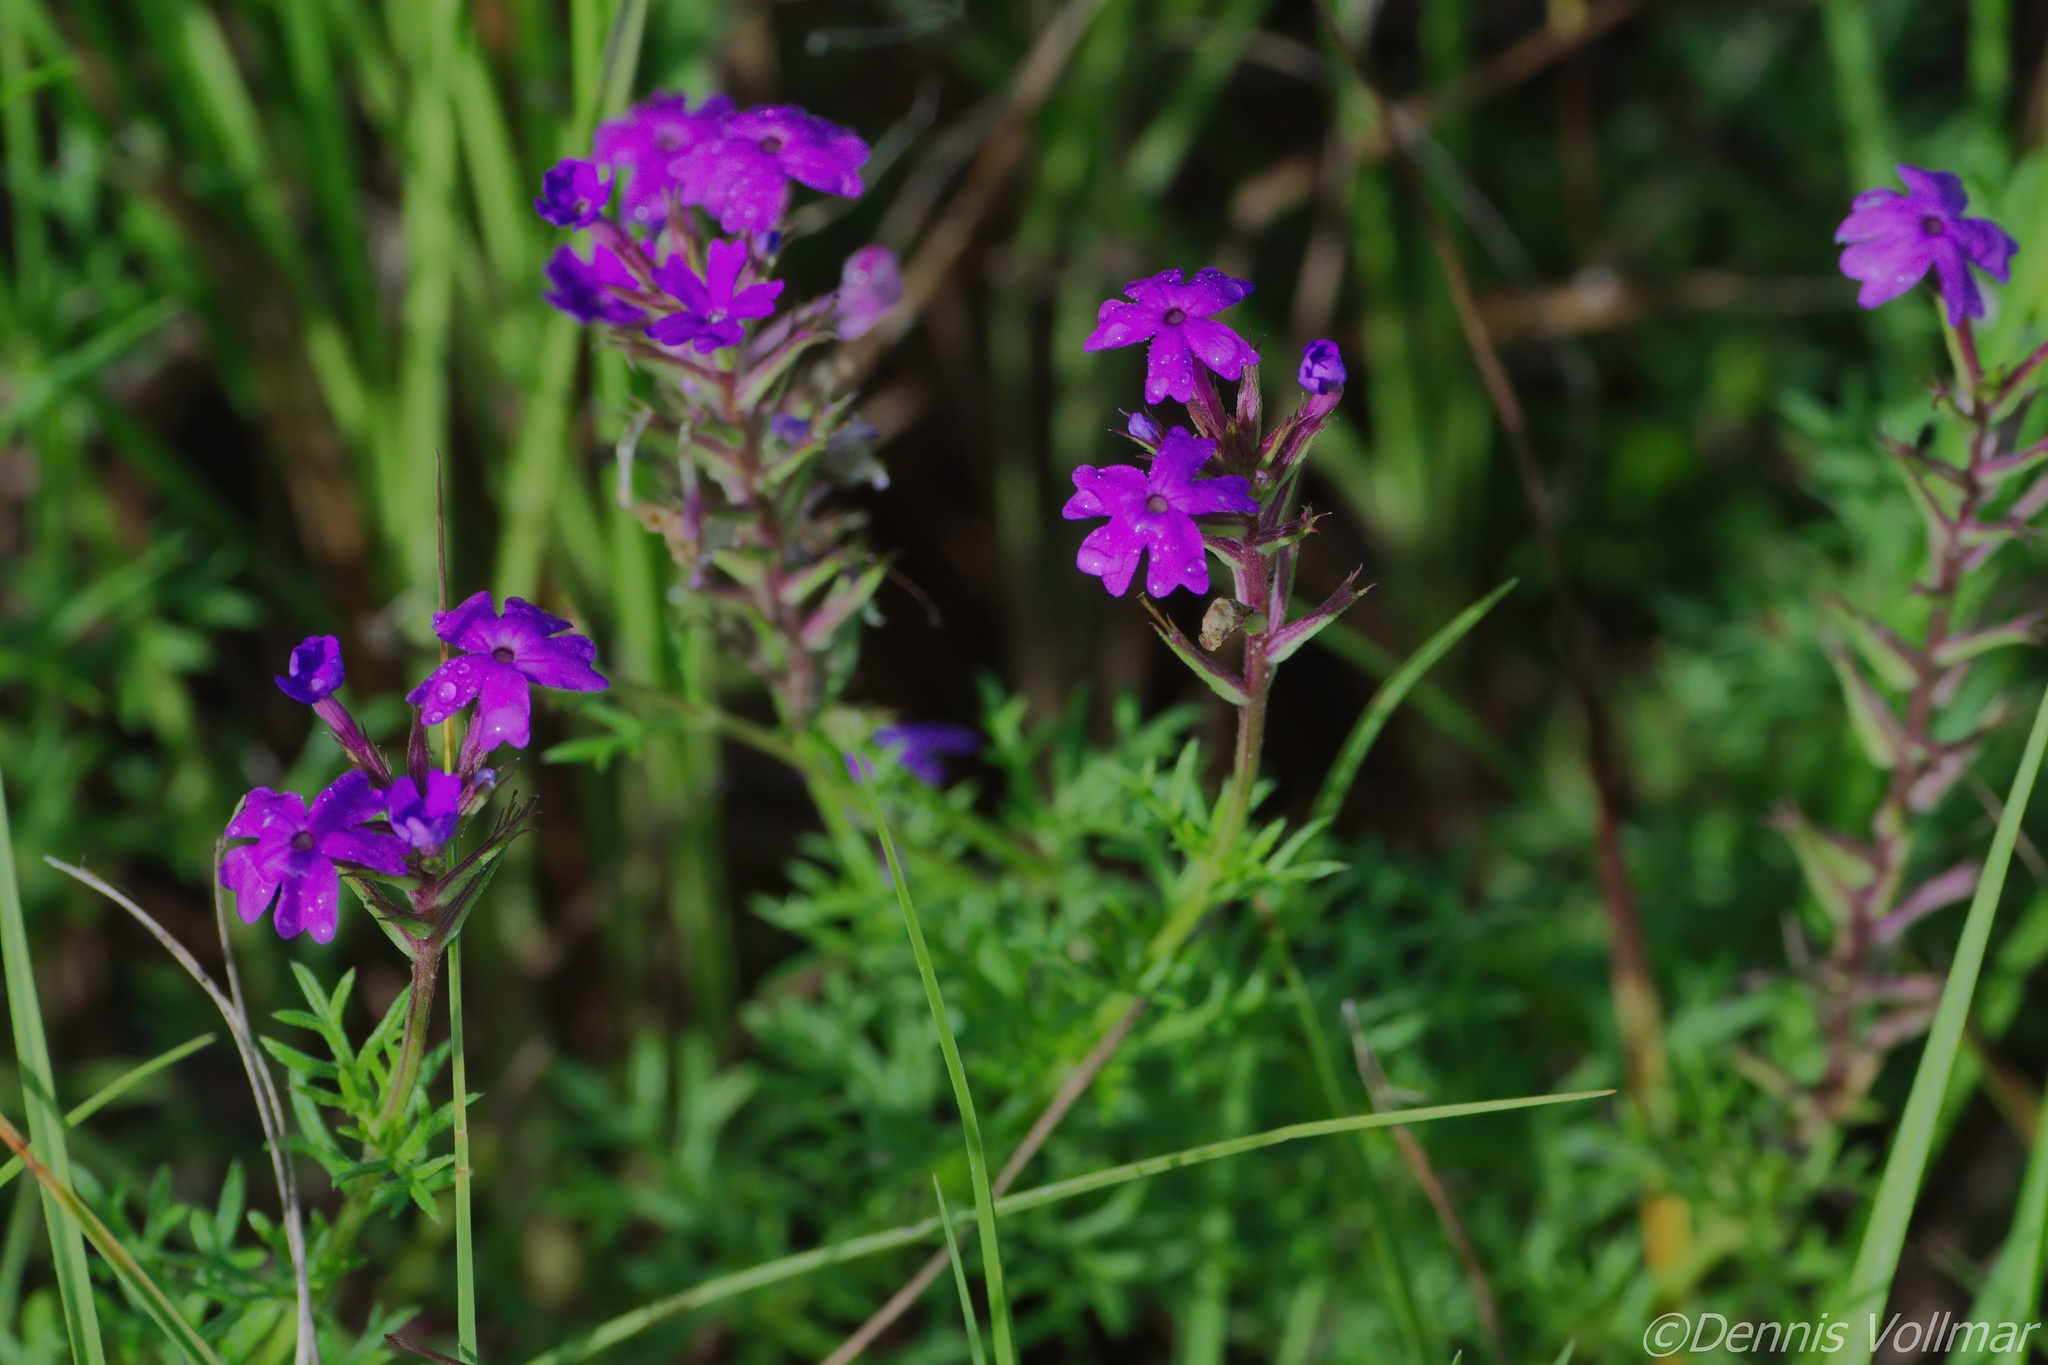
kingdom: Plantae
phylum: Tracheophyta
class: Magnoliopsida
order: Lamiales
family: Verbenaceae
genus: Verbena
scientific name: Verbena aristigera
